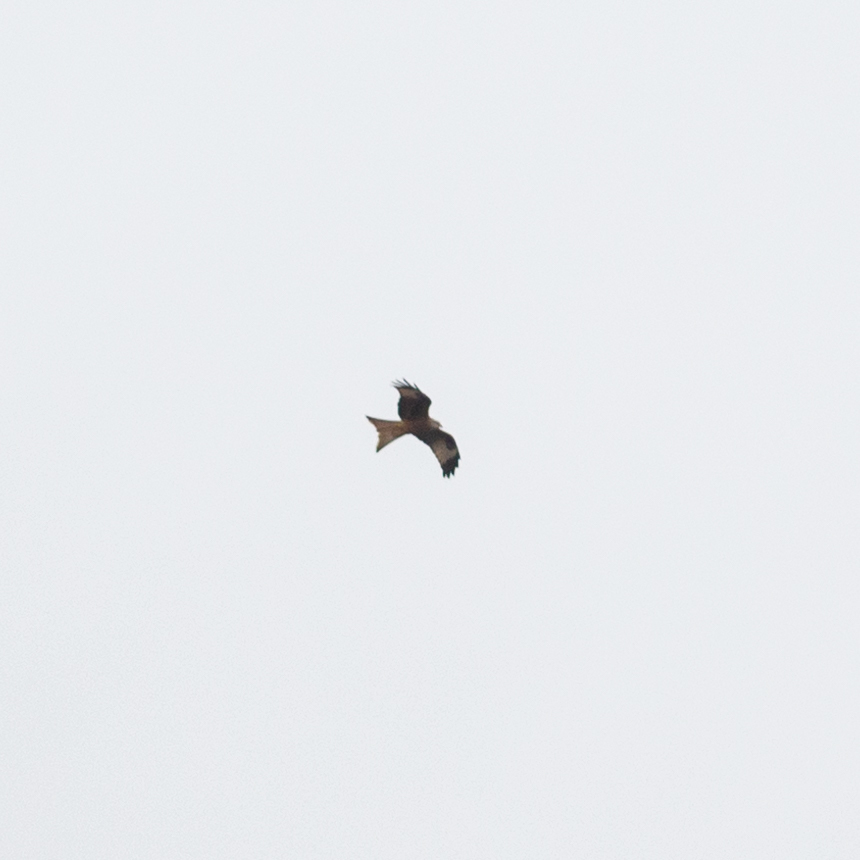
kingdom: Animalia
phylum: Chordata
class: Aves
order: Accipitriformes
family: Accipitridae
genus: Milvus
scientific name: Milvus milvus
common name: Red kite
